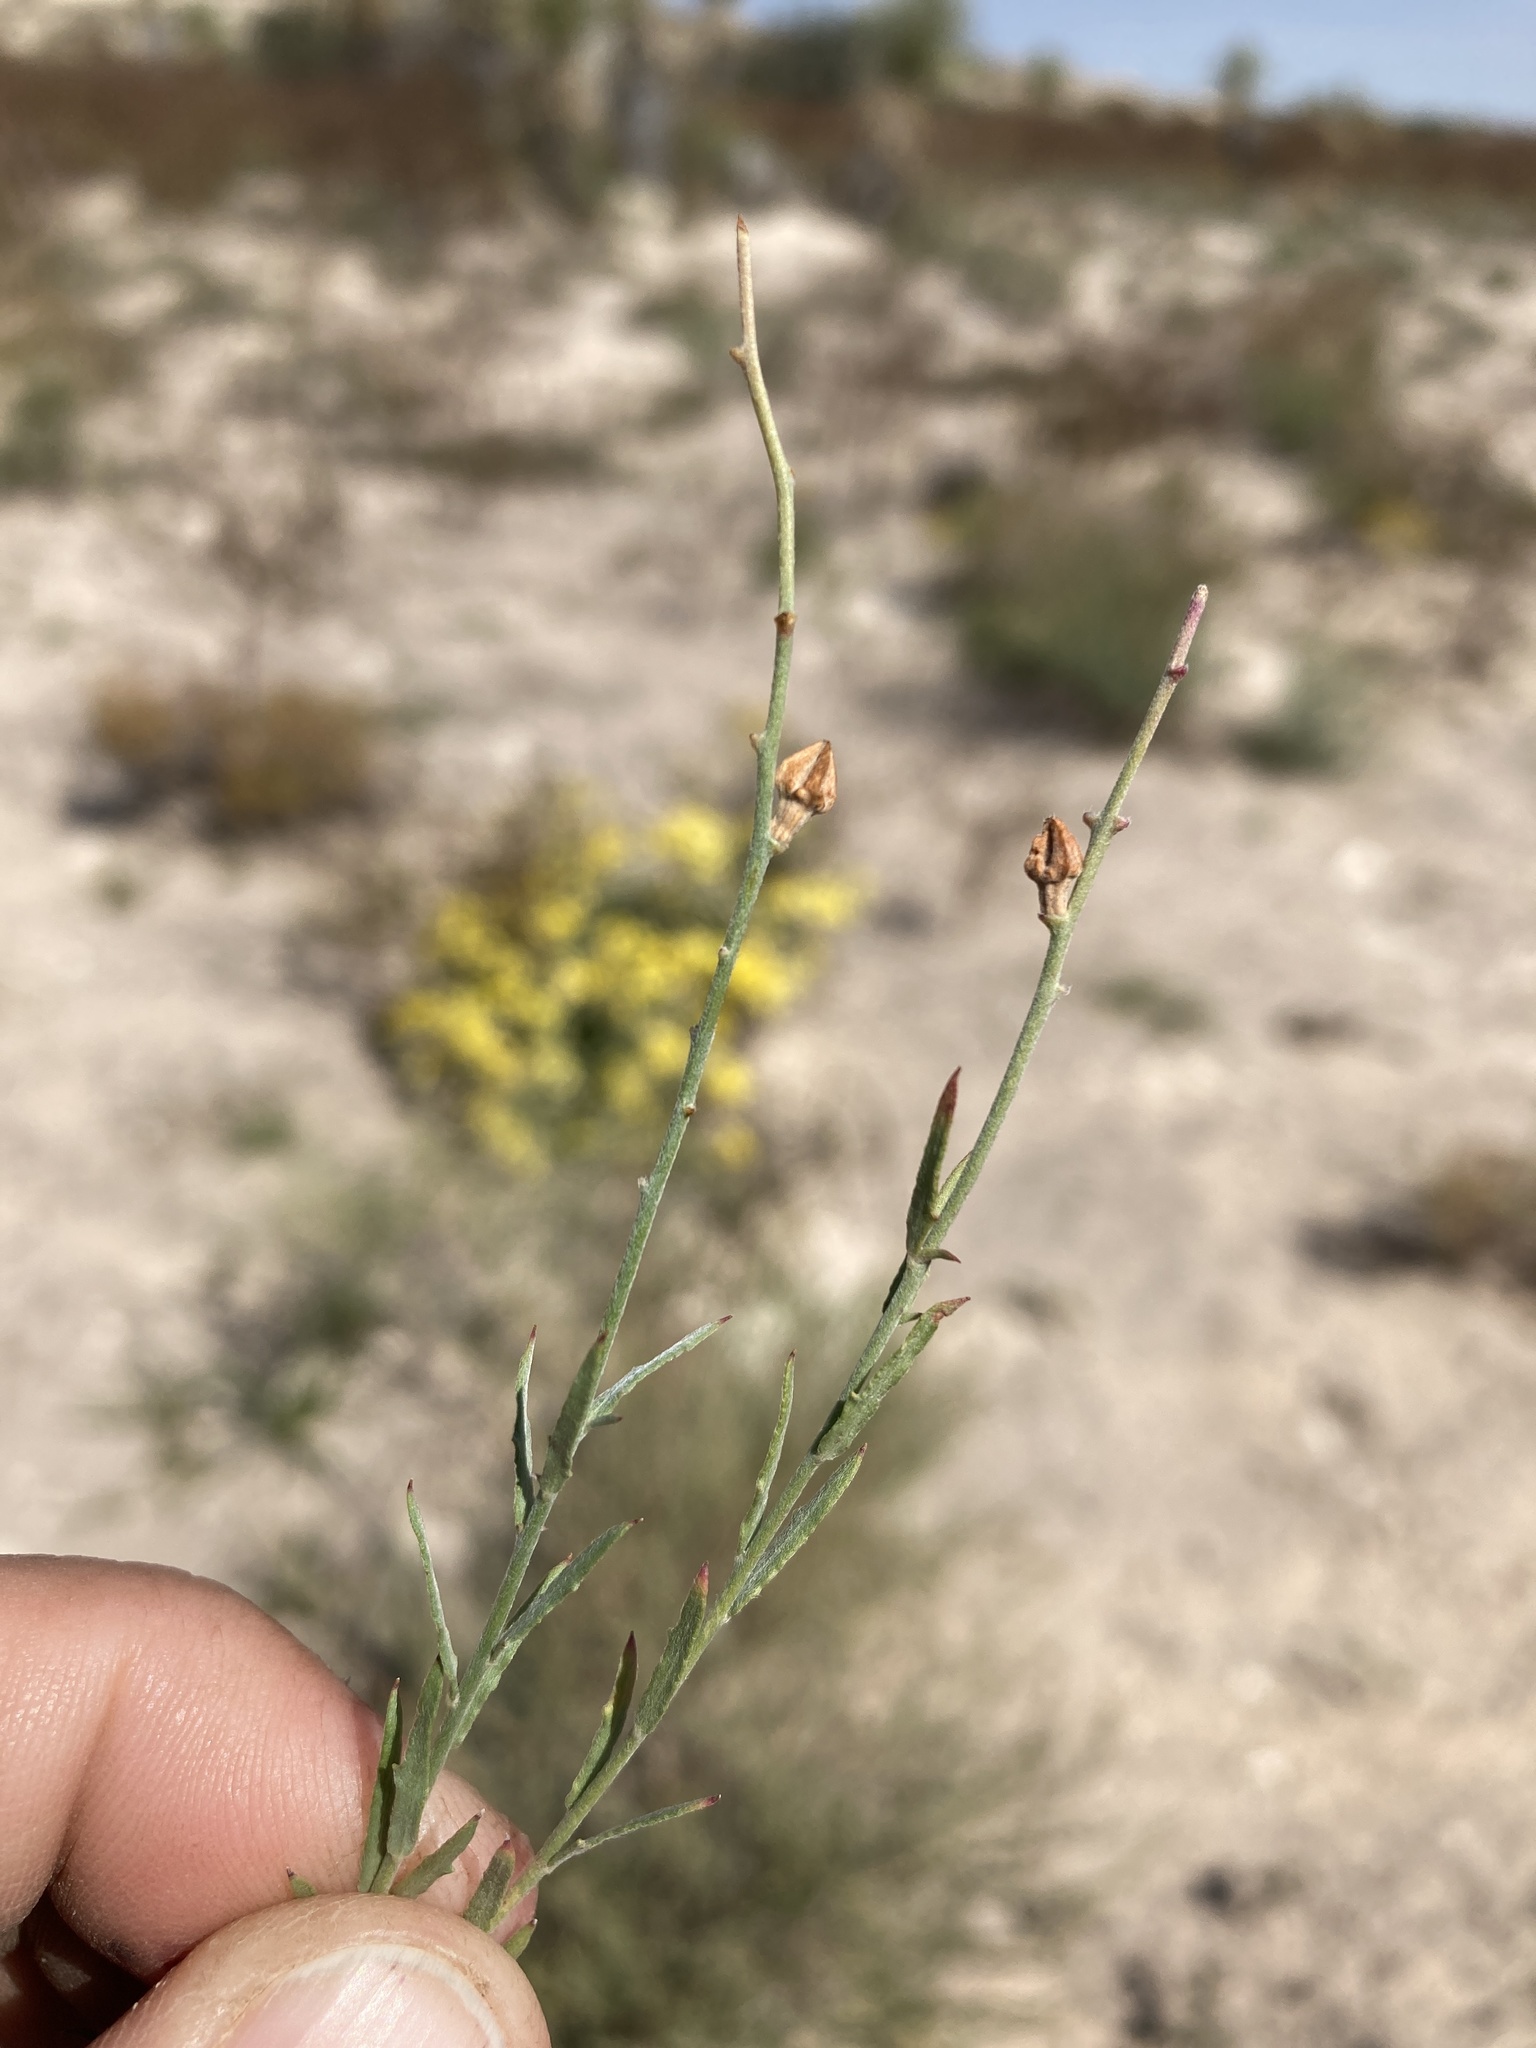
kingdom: Plantae
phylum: Tracheophyta
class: Magnoliopsida
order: Myrtales
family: Onagraceae
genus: Oenothera
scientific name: Oenothera suffrutescens
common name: Scarlet beeblossom
